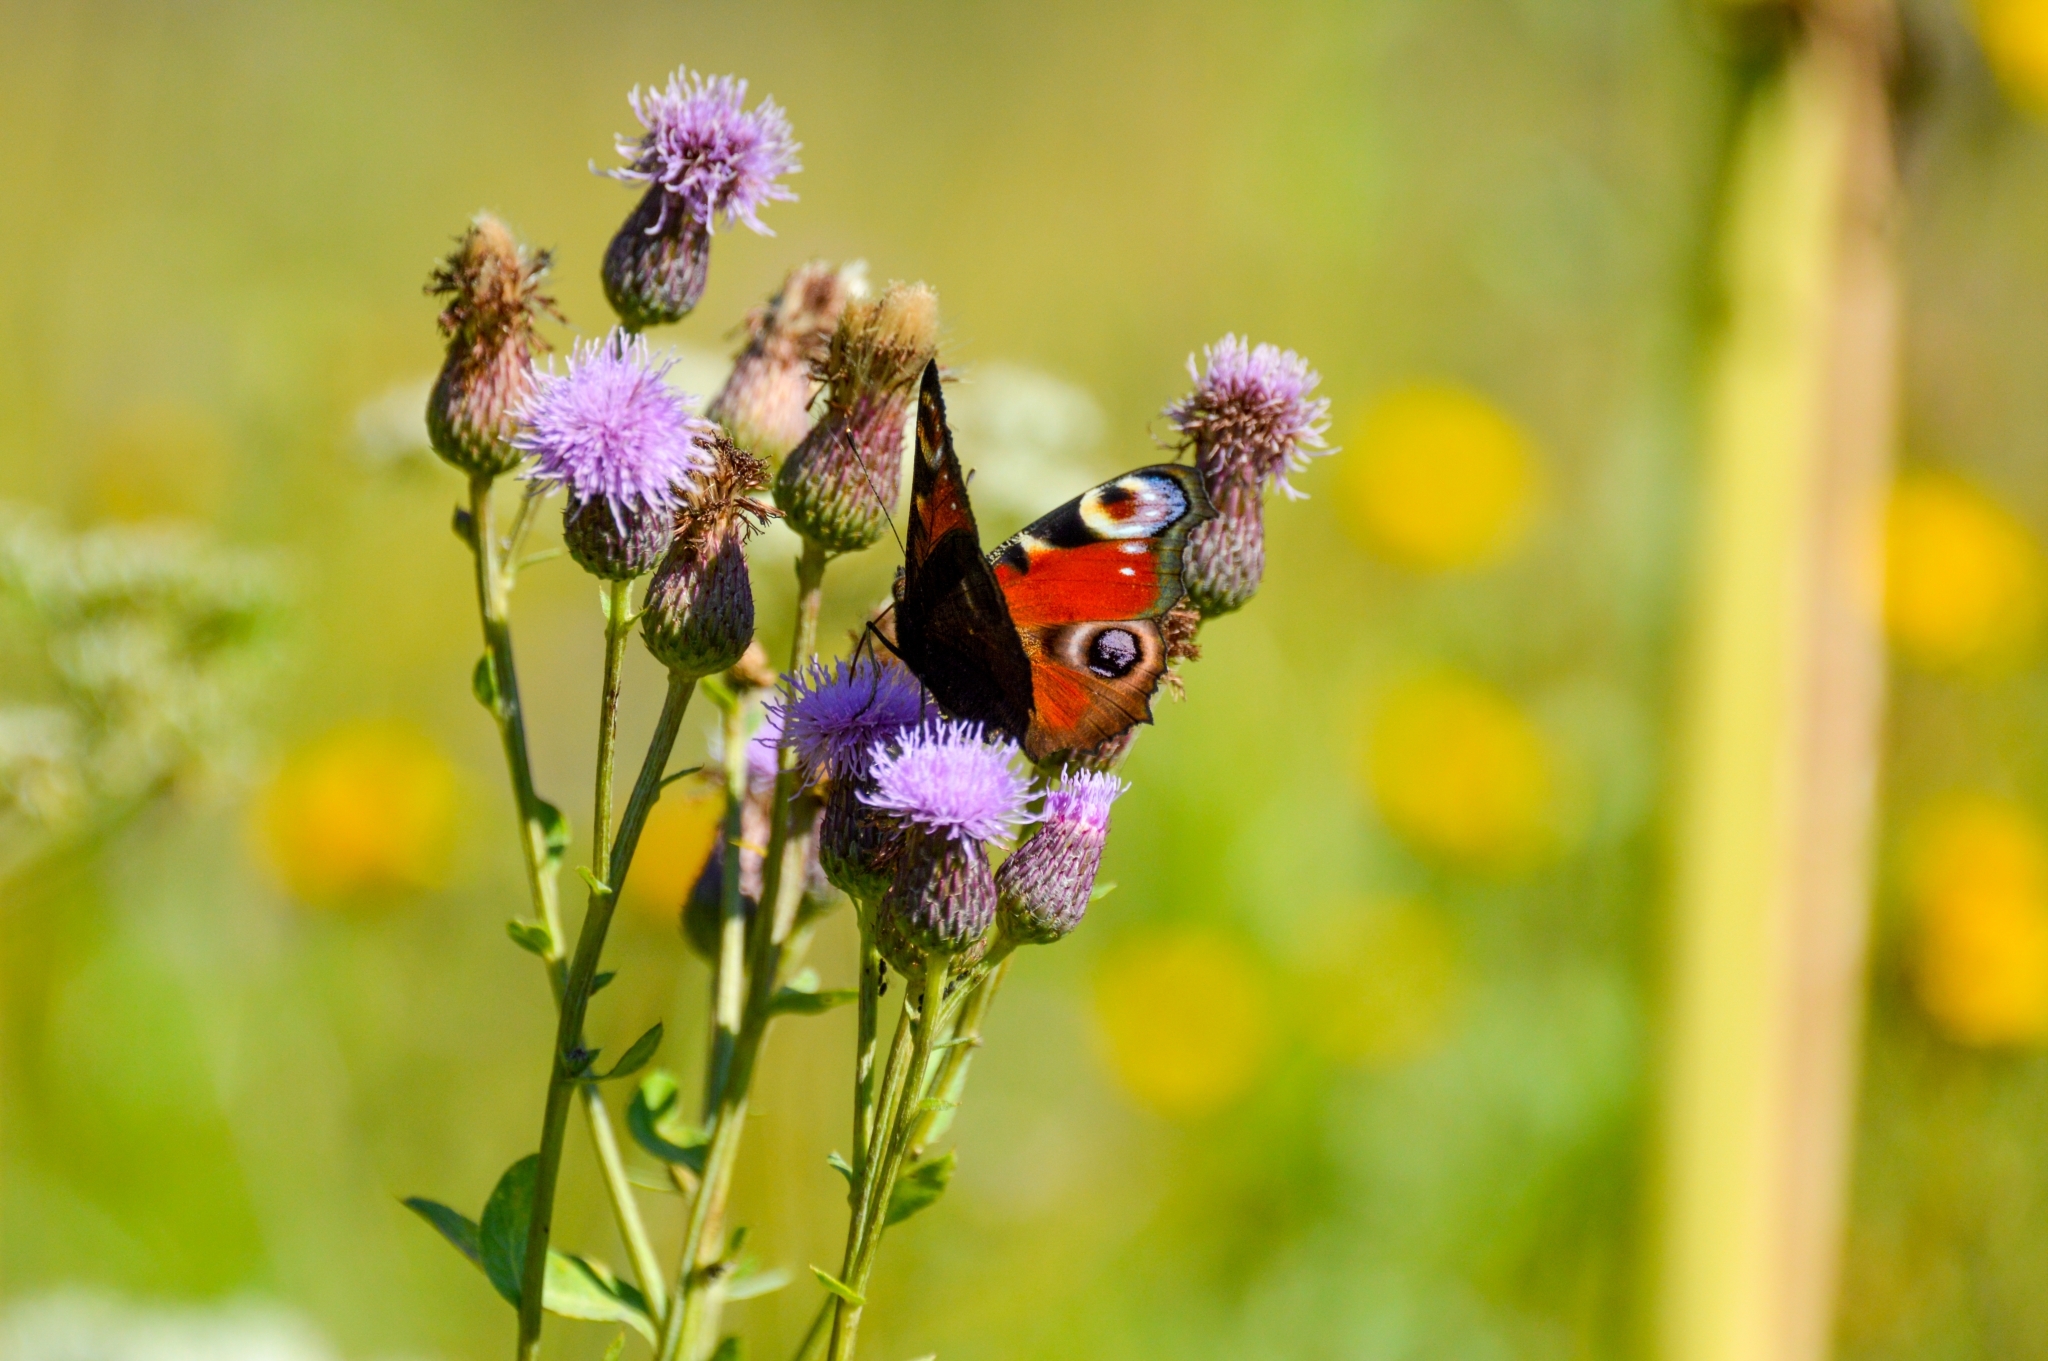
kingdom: Animalia
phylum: Arthropoda
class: Insecta
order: Lepidoptera
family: Nymphalidae
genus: Aglais
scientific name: Aglais io
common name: Peacock
